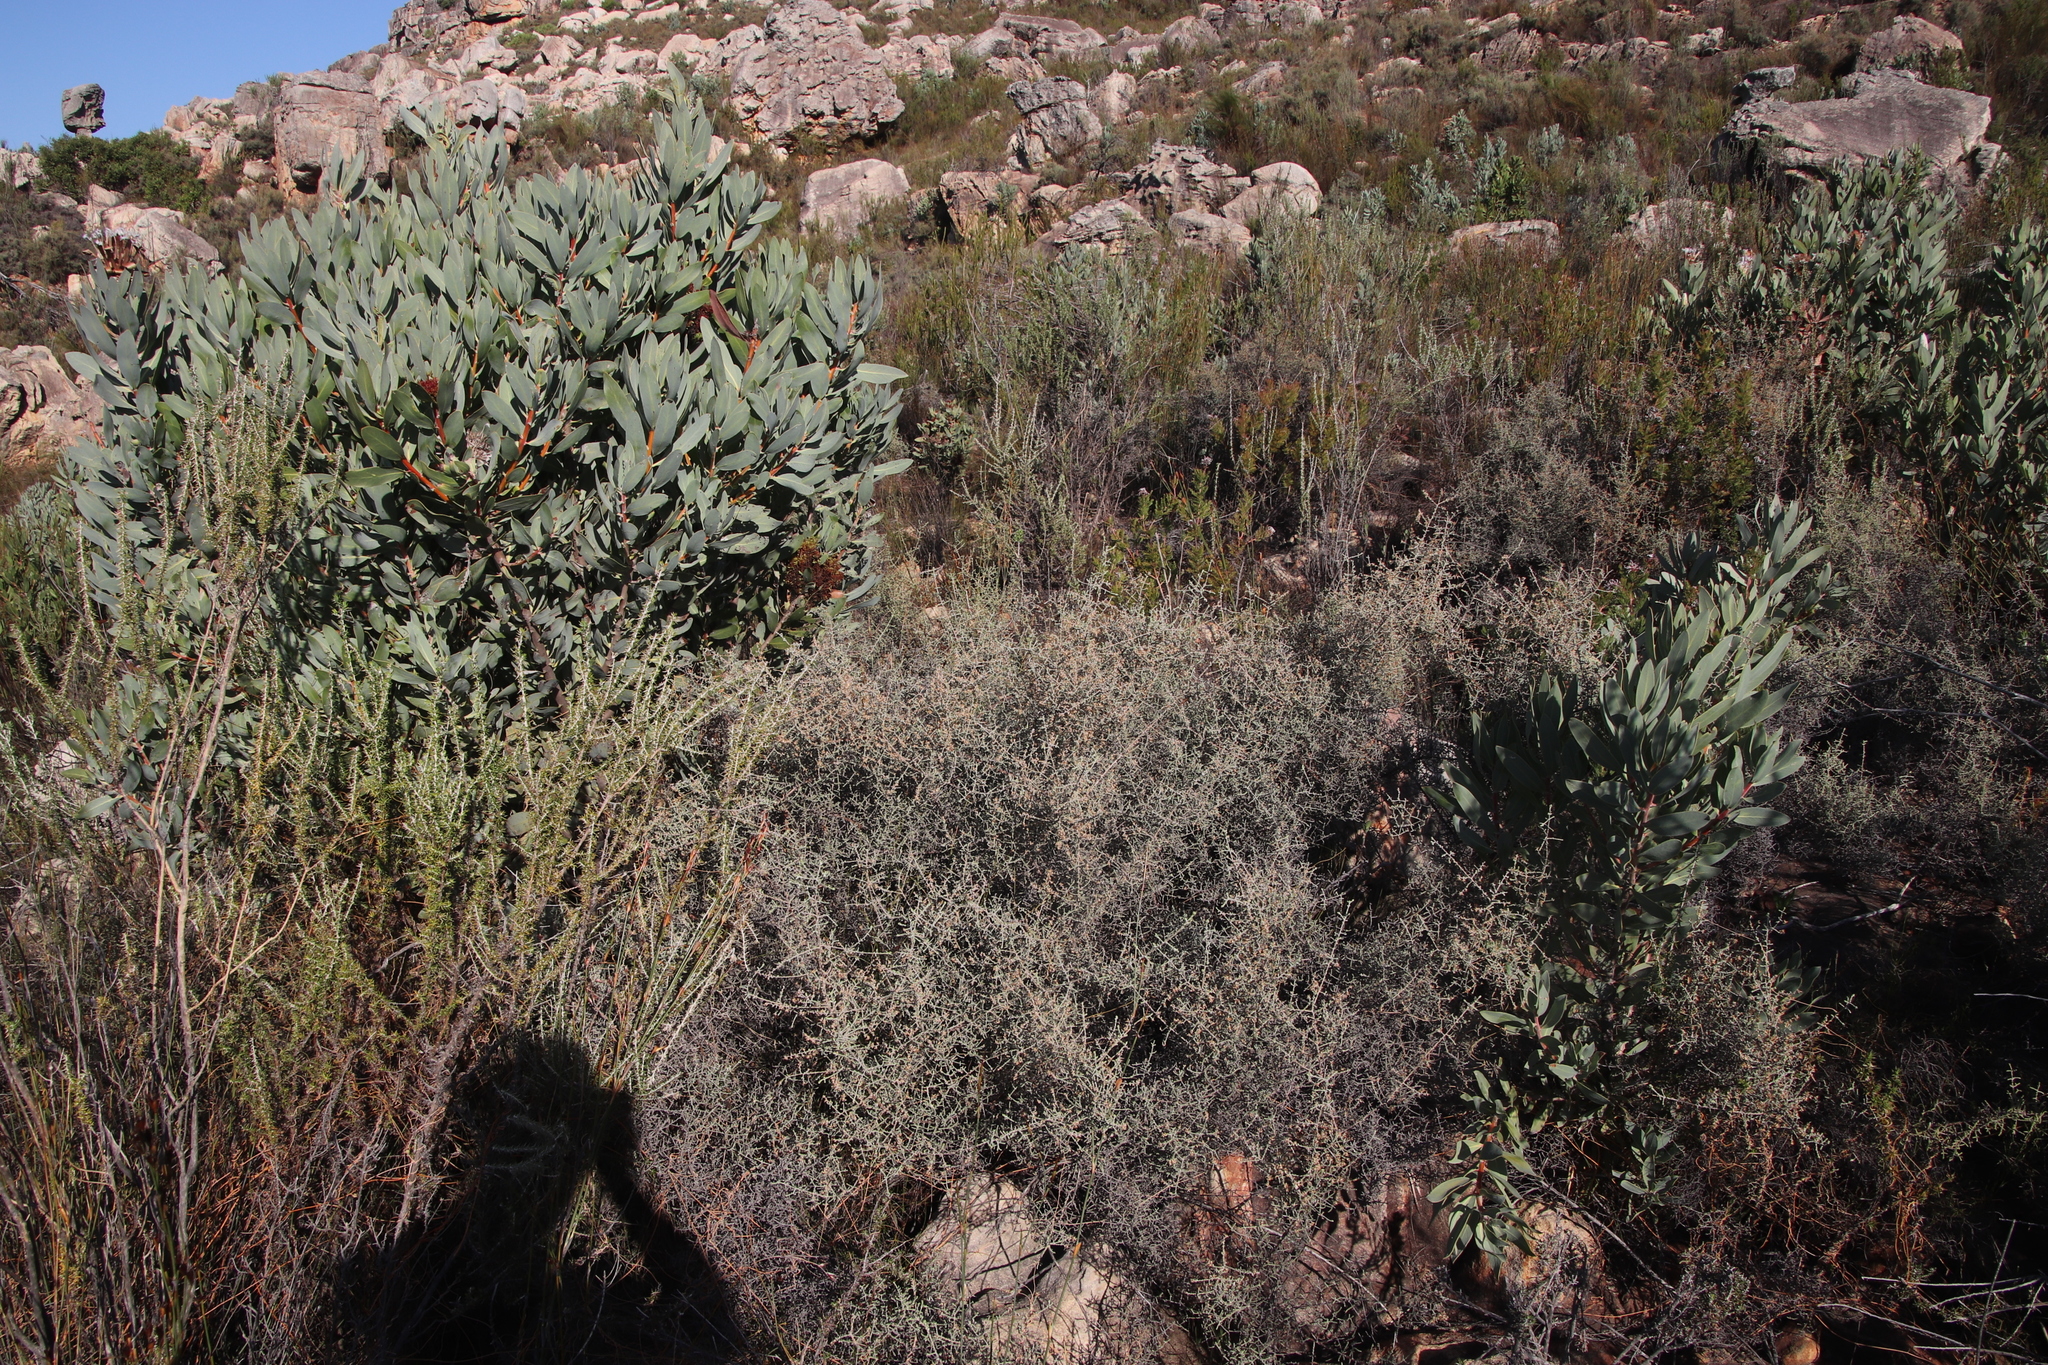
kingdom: Plantae
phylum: Tracheophyta
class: Magnoliopsida
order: Asterales
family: Asteraceae
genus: Myrovernix
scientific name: Myrovernix intricata
